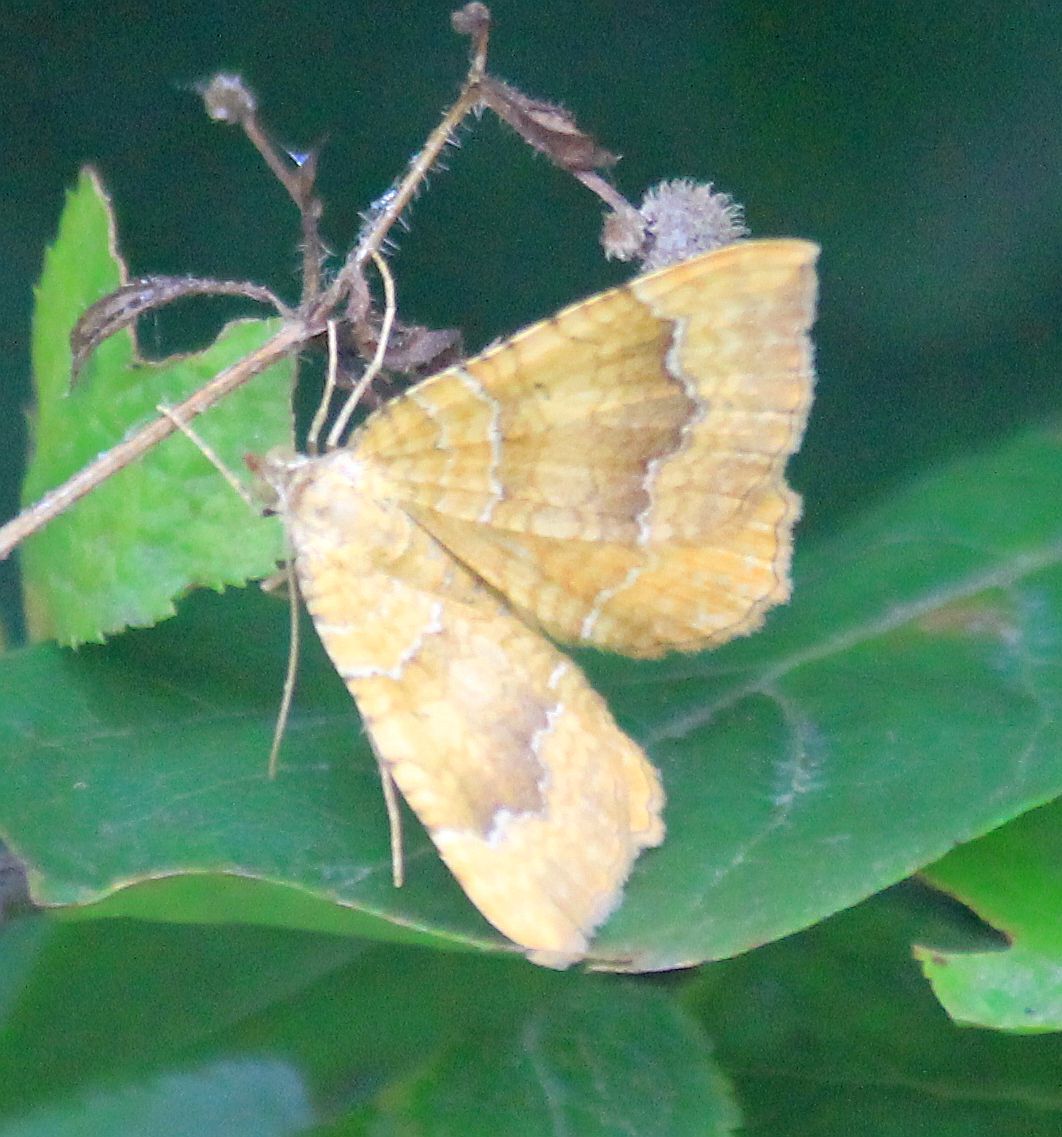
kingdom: Animalia
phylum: Arthropoda
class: Insecta
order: Lepidoptera
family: Geometridae
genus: Camptogramma
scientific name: Camptogramma bilineata
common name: Yellow shell
